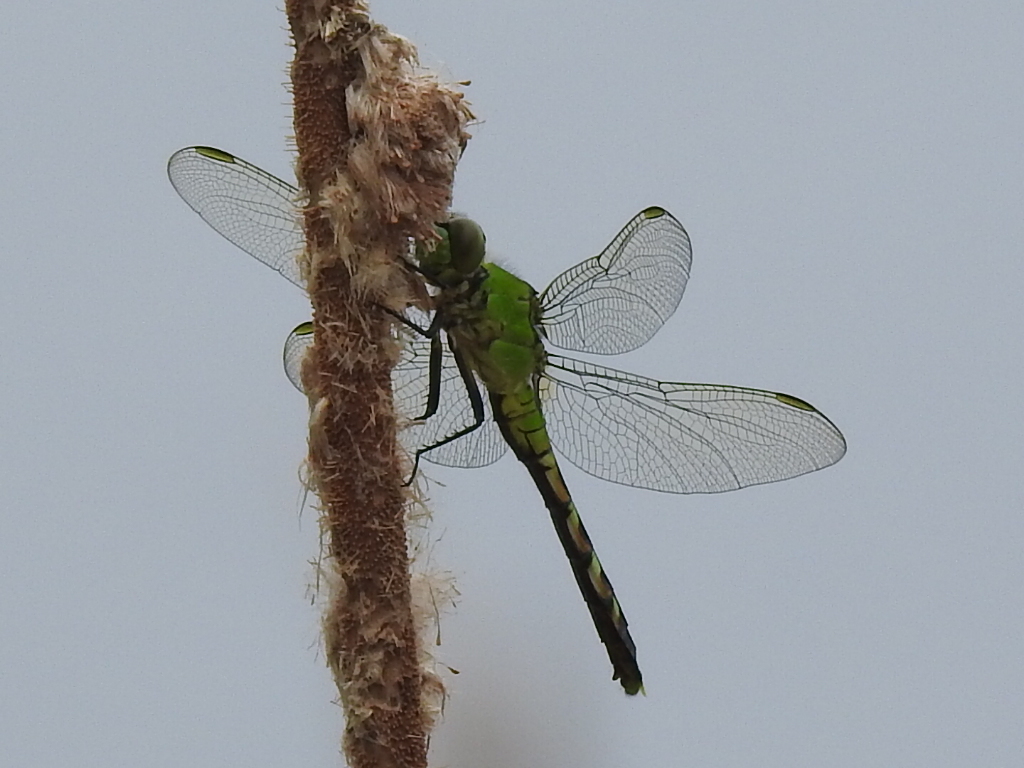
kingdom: Animalia
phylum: Arthropoda
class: Insecta
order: Odonata
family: Libellulidae
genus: Erythemis
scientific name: Erythemis simplicicollis
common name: Eastern pondhawk
